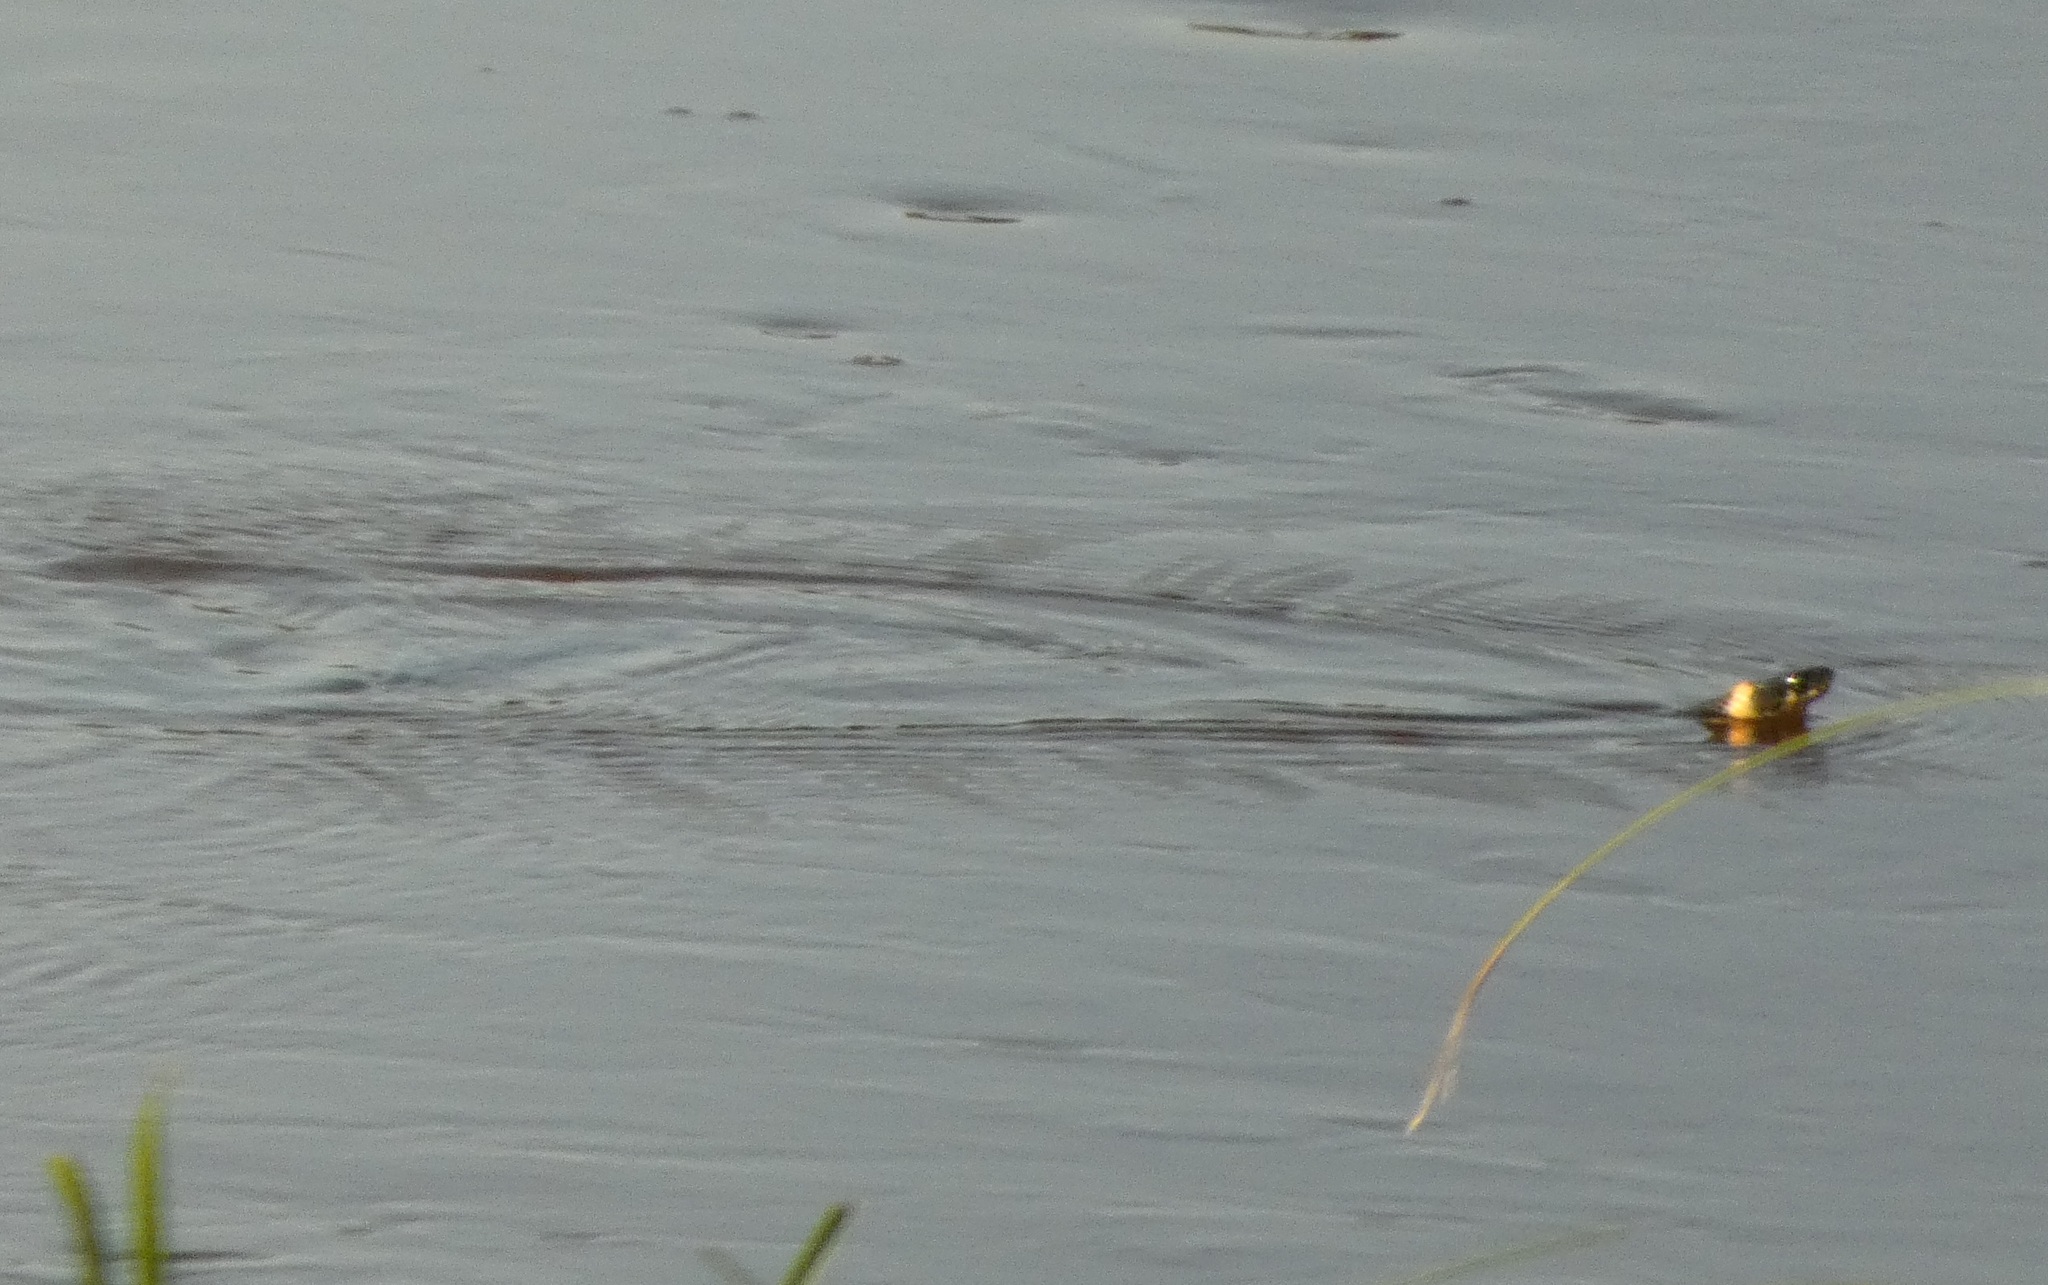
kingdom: Animalia
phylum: Chordata
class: Squamata
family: Colubridae
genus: Natrix
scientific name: Natrix natrix
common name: Grass snake
